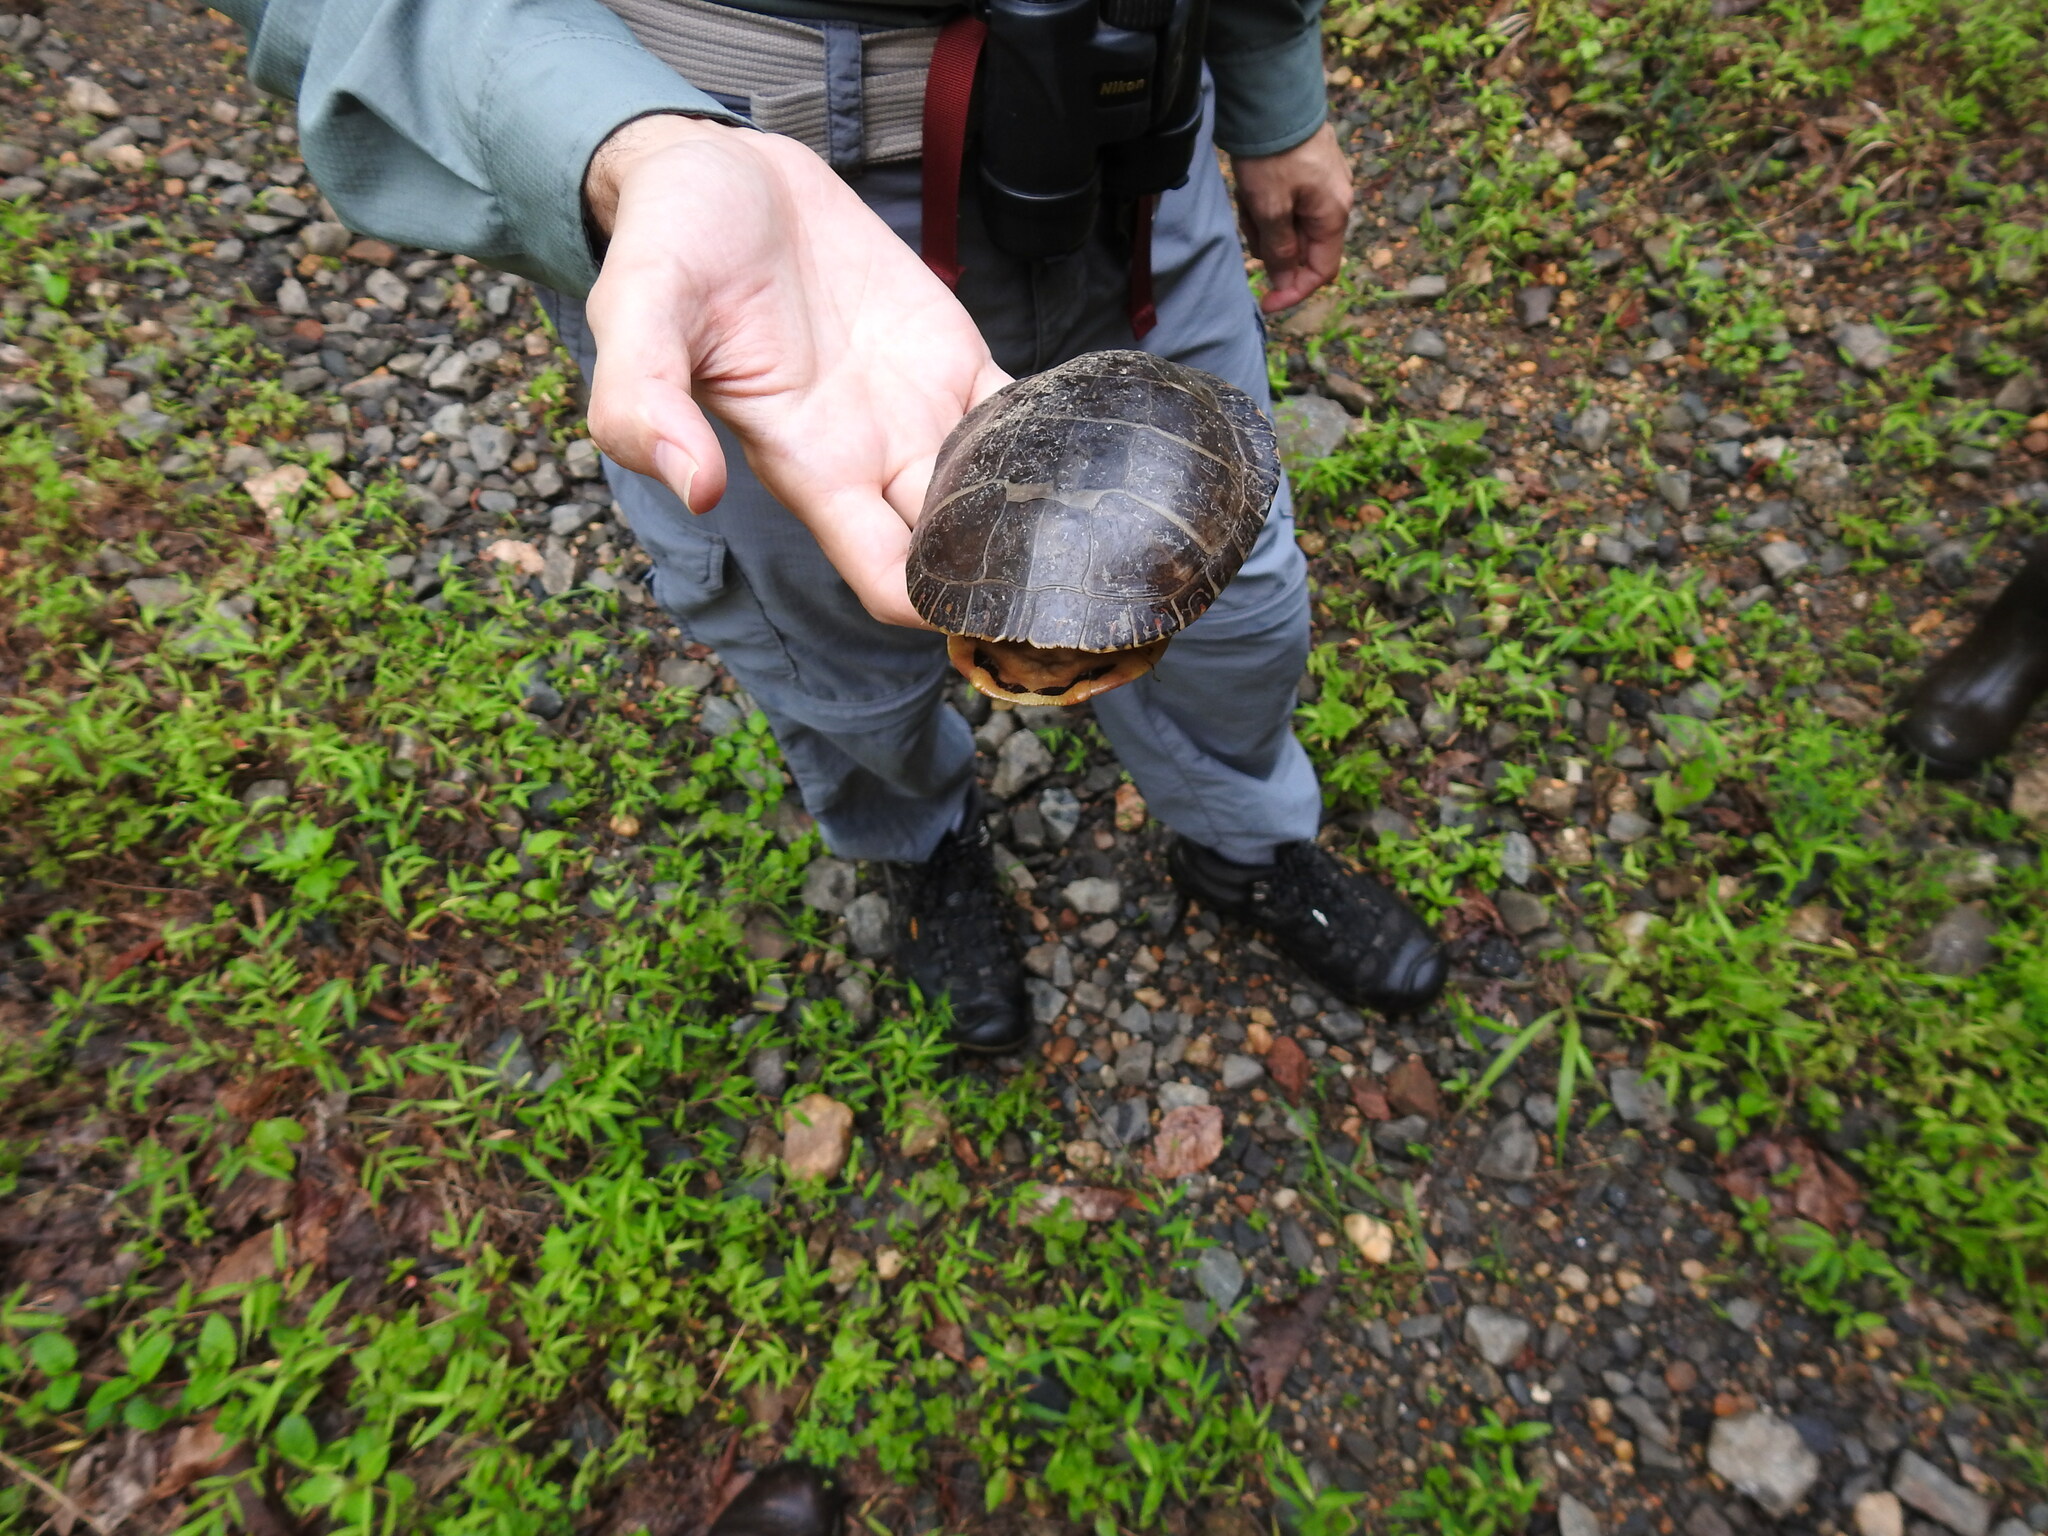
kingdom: Animalia
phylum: Chordata
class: Testudines
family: Emydidae
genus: Chrysemys
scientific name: Chrysemys picta
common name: Painted turtle
